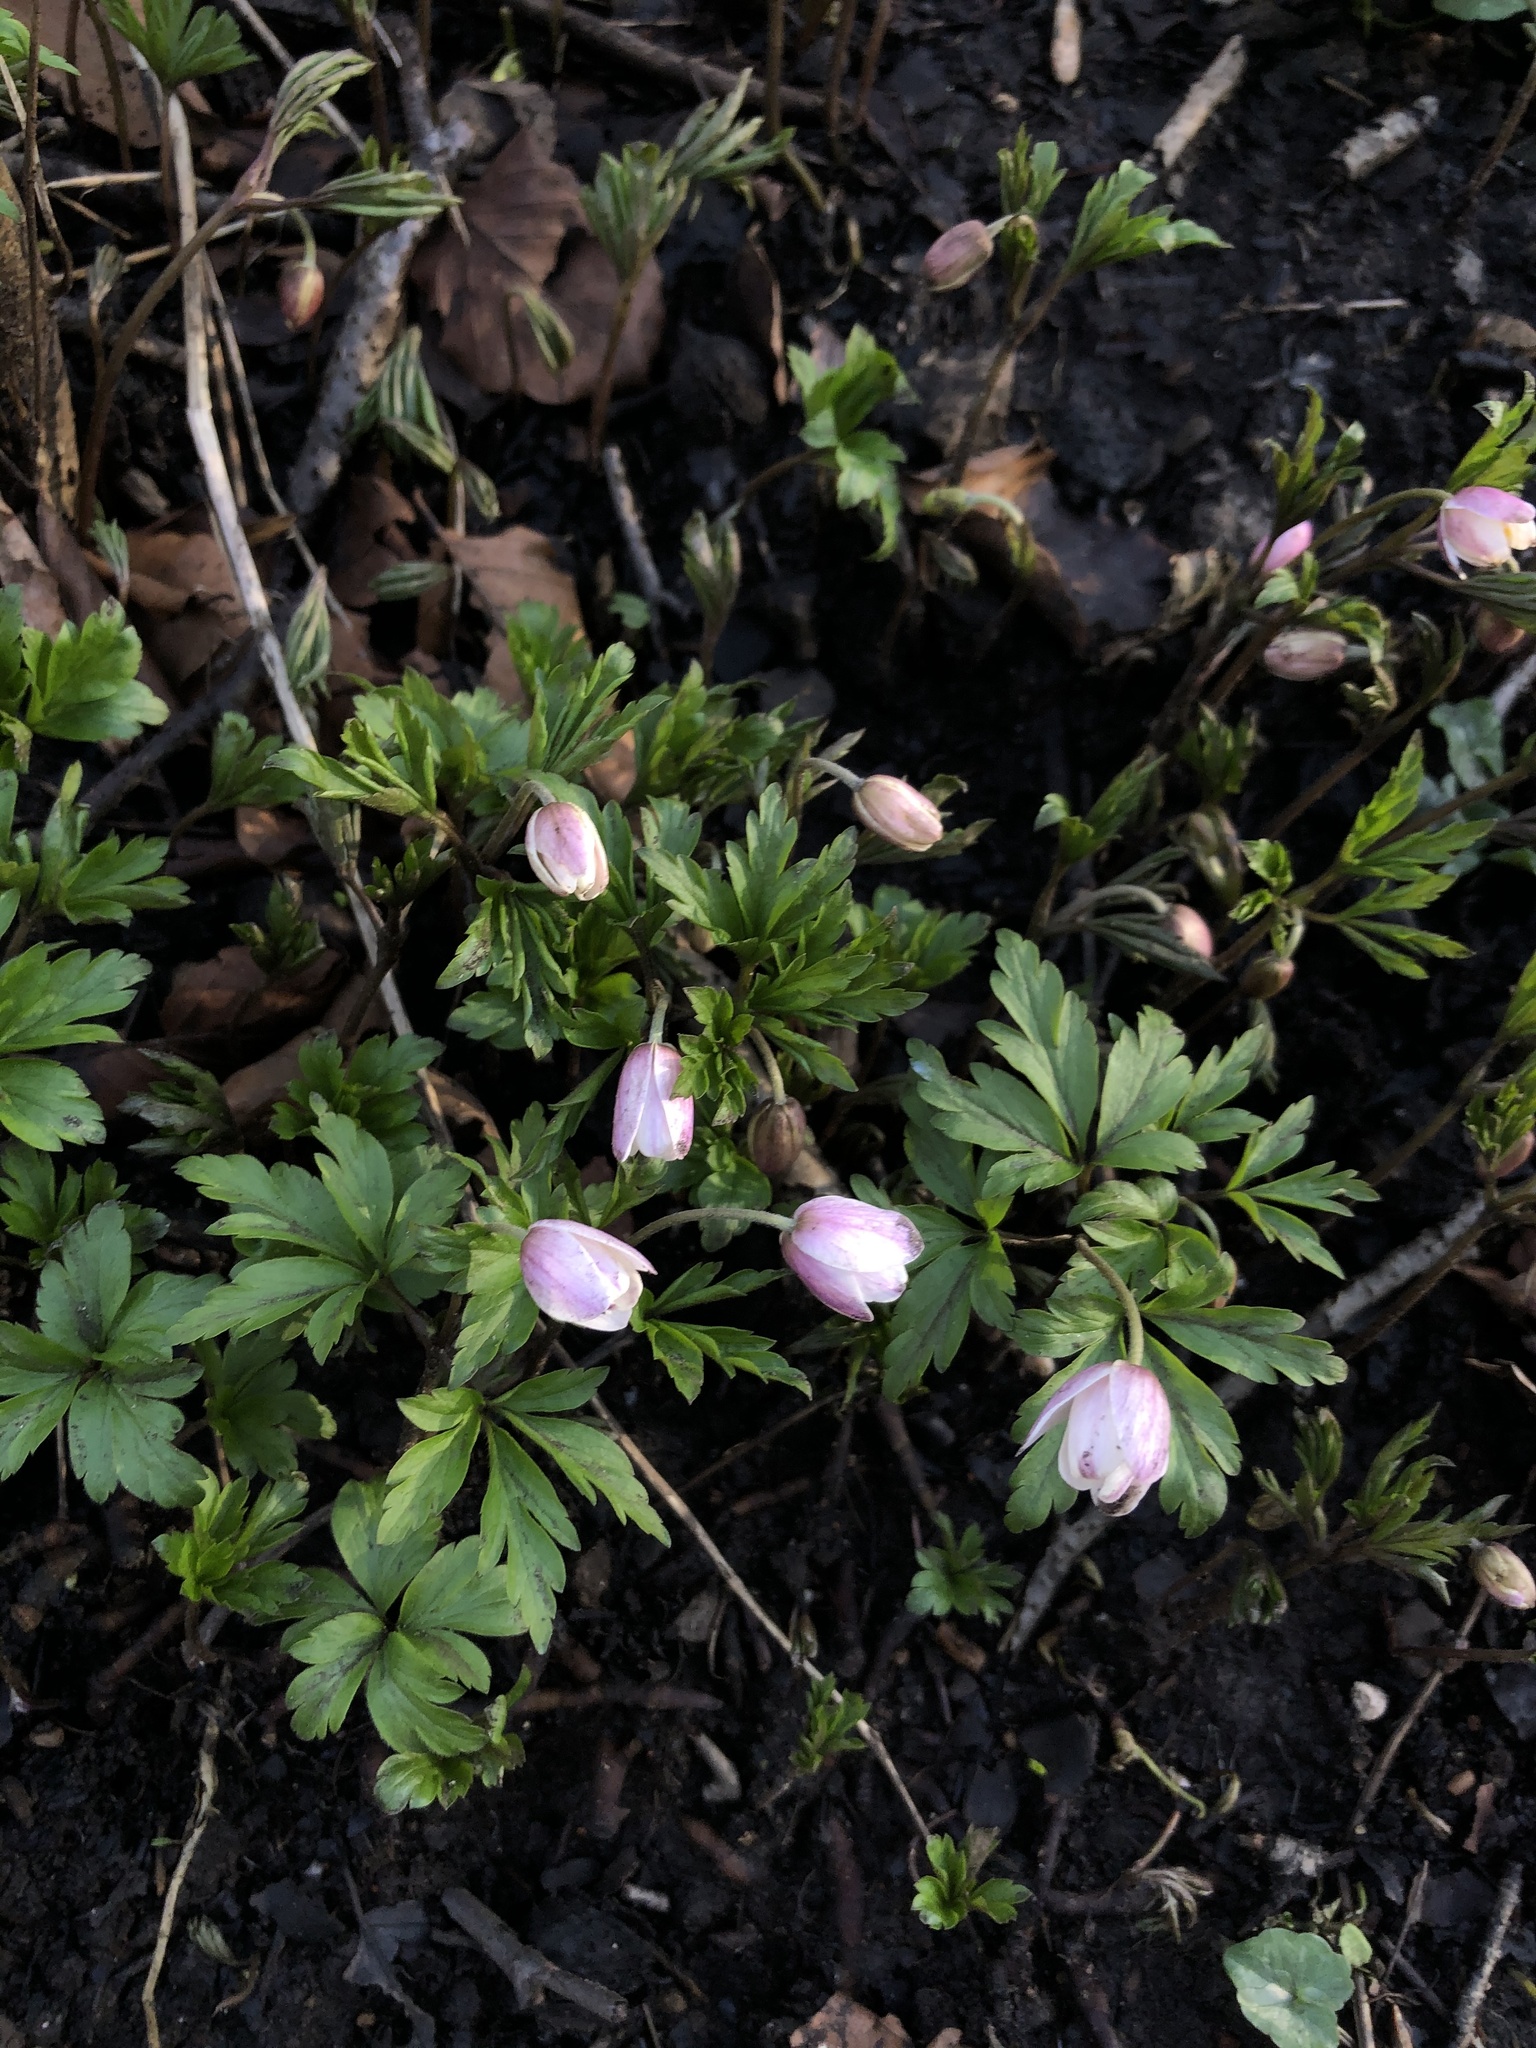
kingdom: Plantae
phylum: Tracheophyta
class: Magnoliopsida
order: Ranunculales
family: Ranunculaceae
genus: Anemone
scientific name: Anemone nemorosa
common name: Wood anemone
